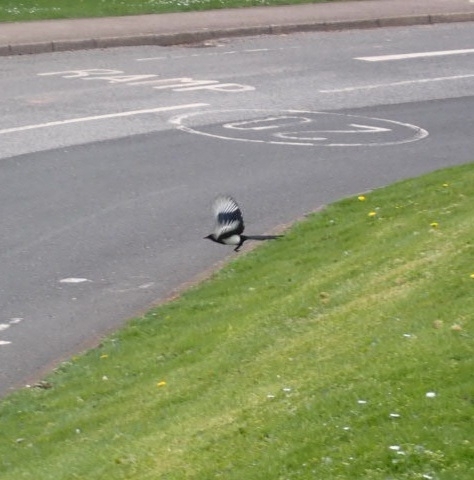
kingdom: Animalia
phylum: Chordata
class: Aves
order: Passeriformes
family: Corvidae
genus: Pica
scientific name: Pica pica
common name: Eurasian magpie
